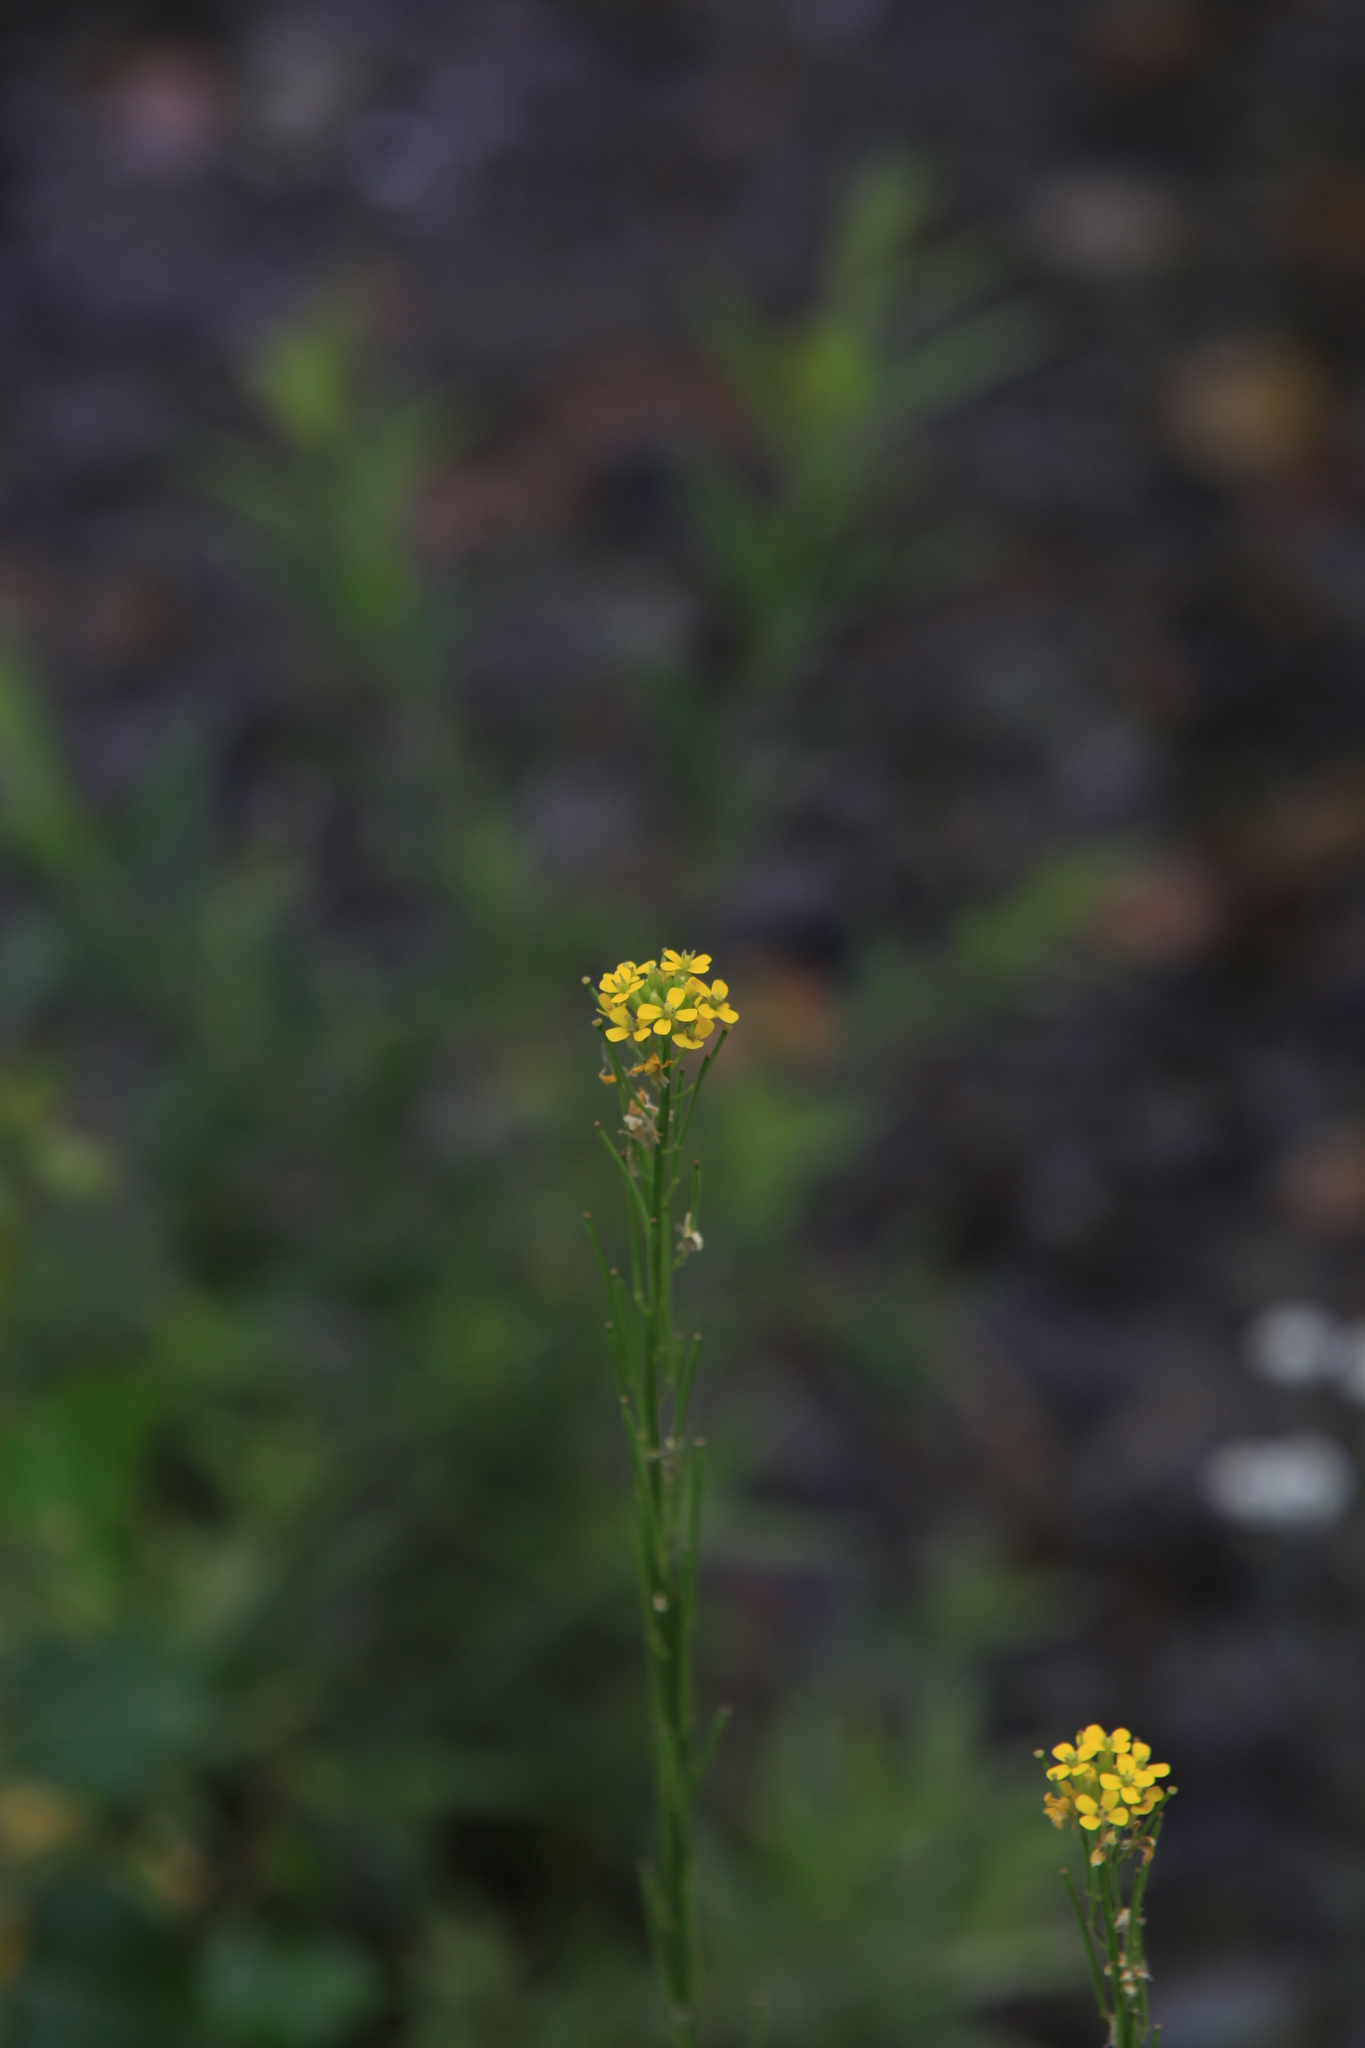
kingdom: Plantae
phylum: Tracheophyta
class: Magnoliopsida
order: Brassicales
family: Brassicaceae
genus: Erysimum
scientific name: Erysimum hieraciifolium
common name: European wallflower
